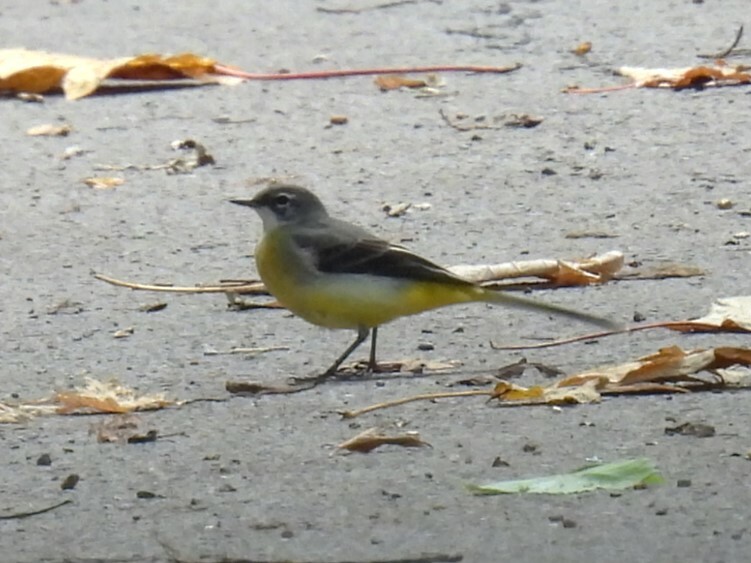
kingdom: Animalia
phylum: Chordata
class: Aves
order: Passeriformes
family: Motacillidae
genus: Motacilla
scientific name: Motacilla cinerea
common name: Grey wagtail
